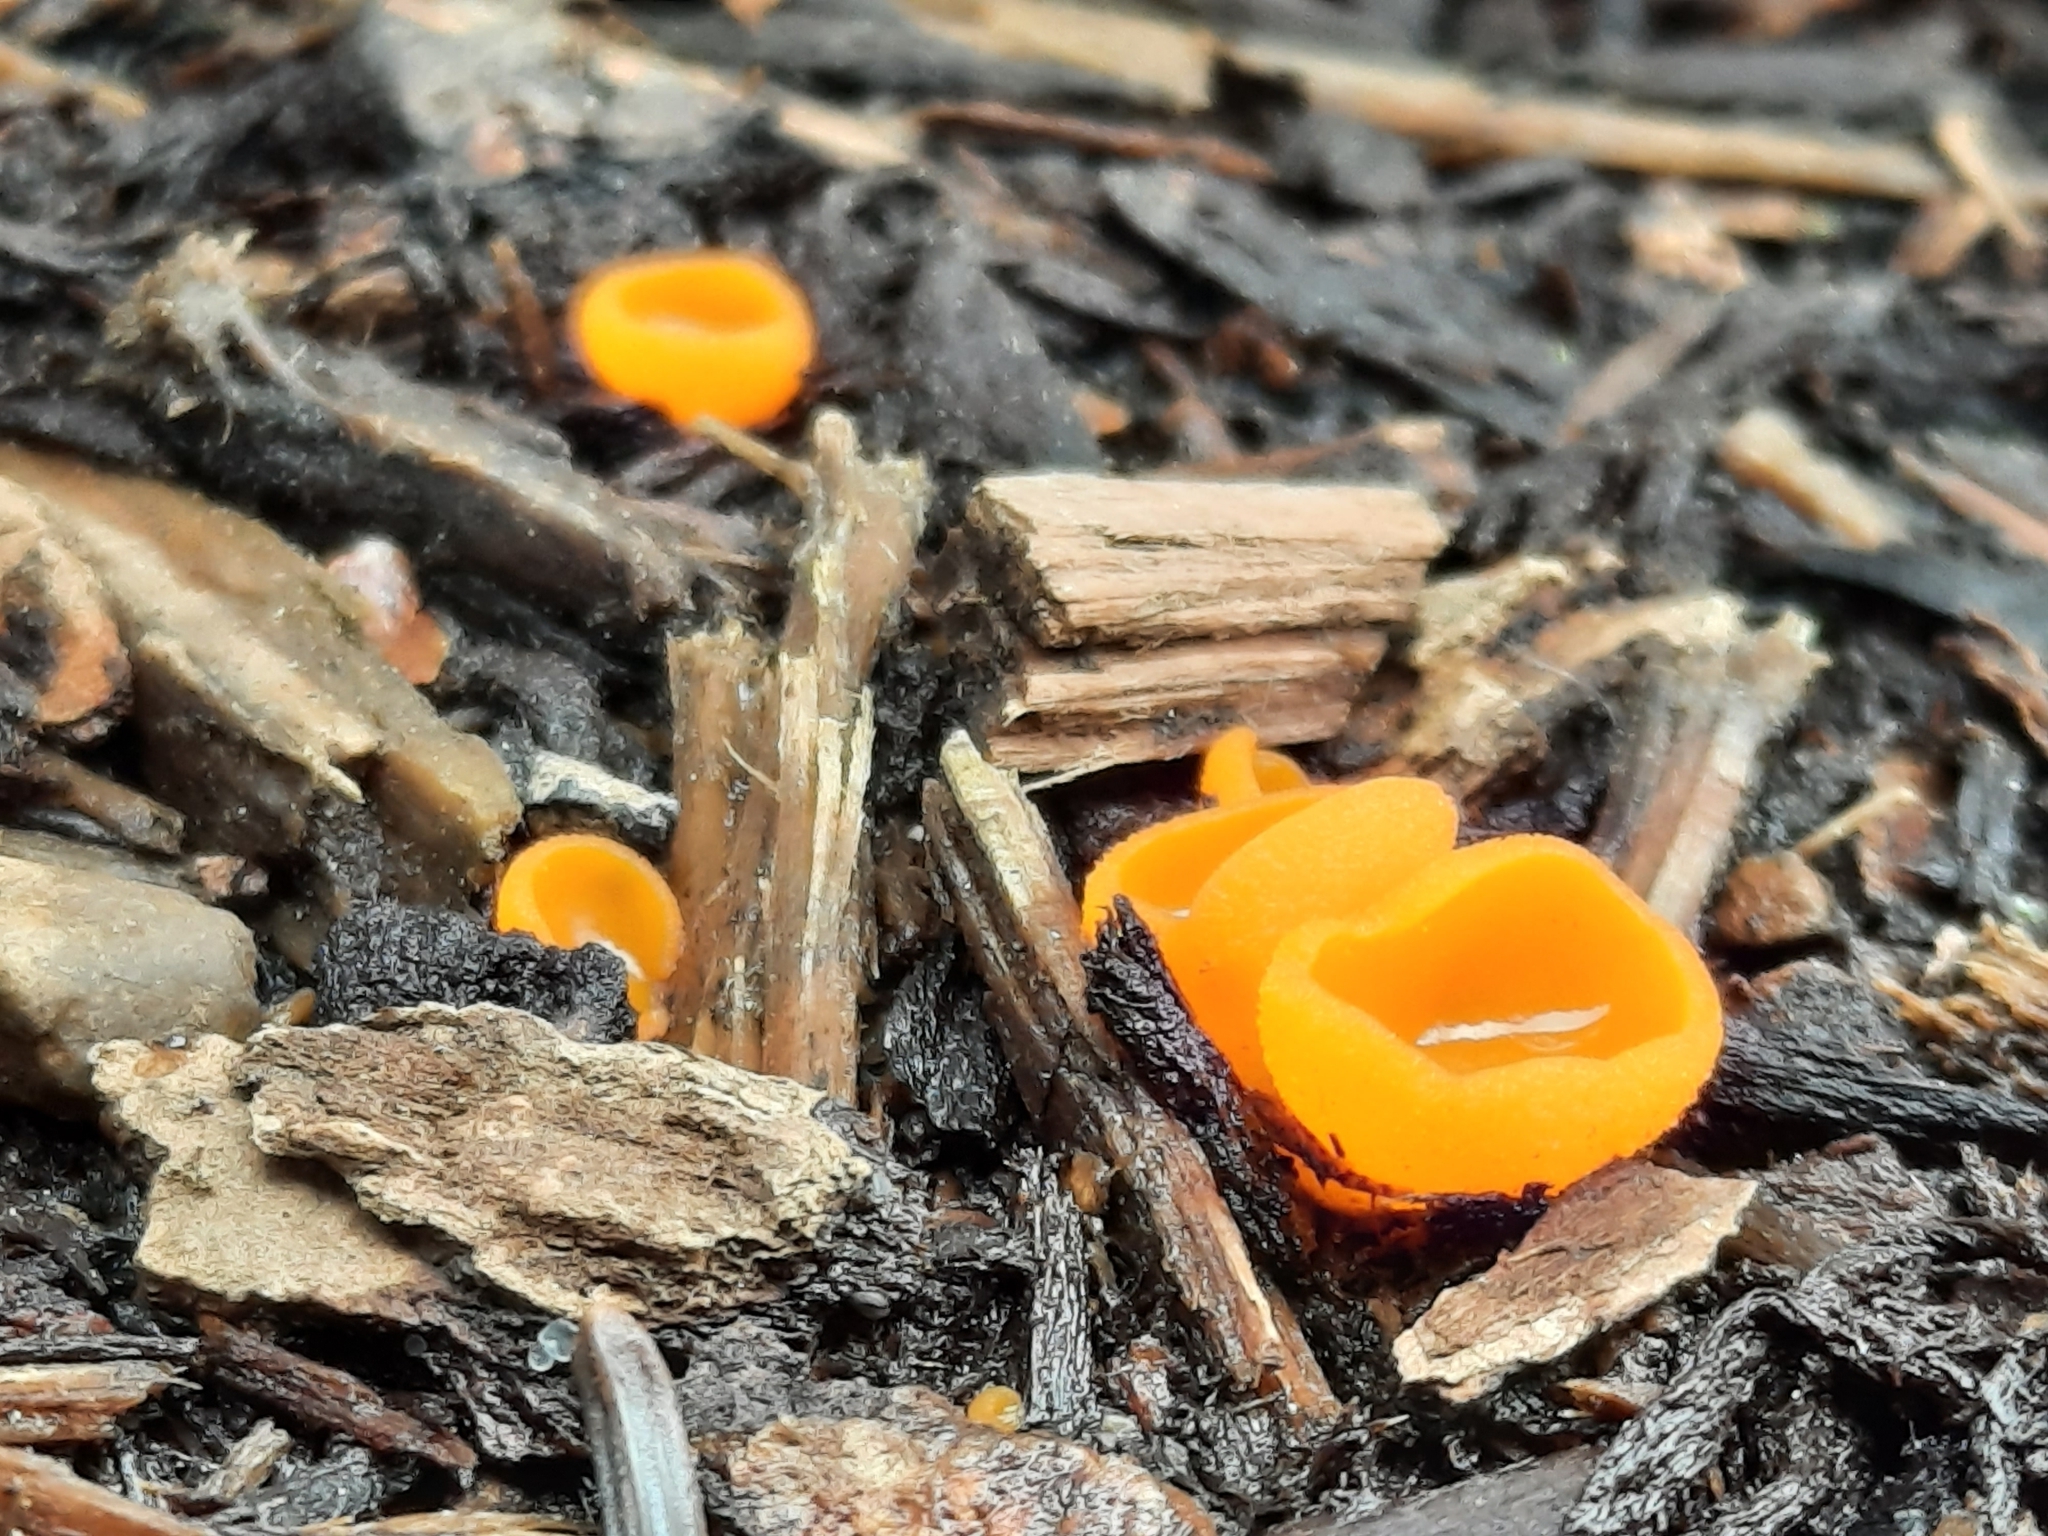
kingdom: Fungi
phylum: Ascomycota
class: Pezizomycetes
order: Pezizales
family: Pyronemataceae
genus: Aleuria
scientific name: Aleuria aurantia
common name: Orange peel fungus
